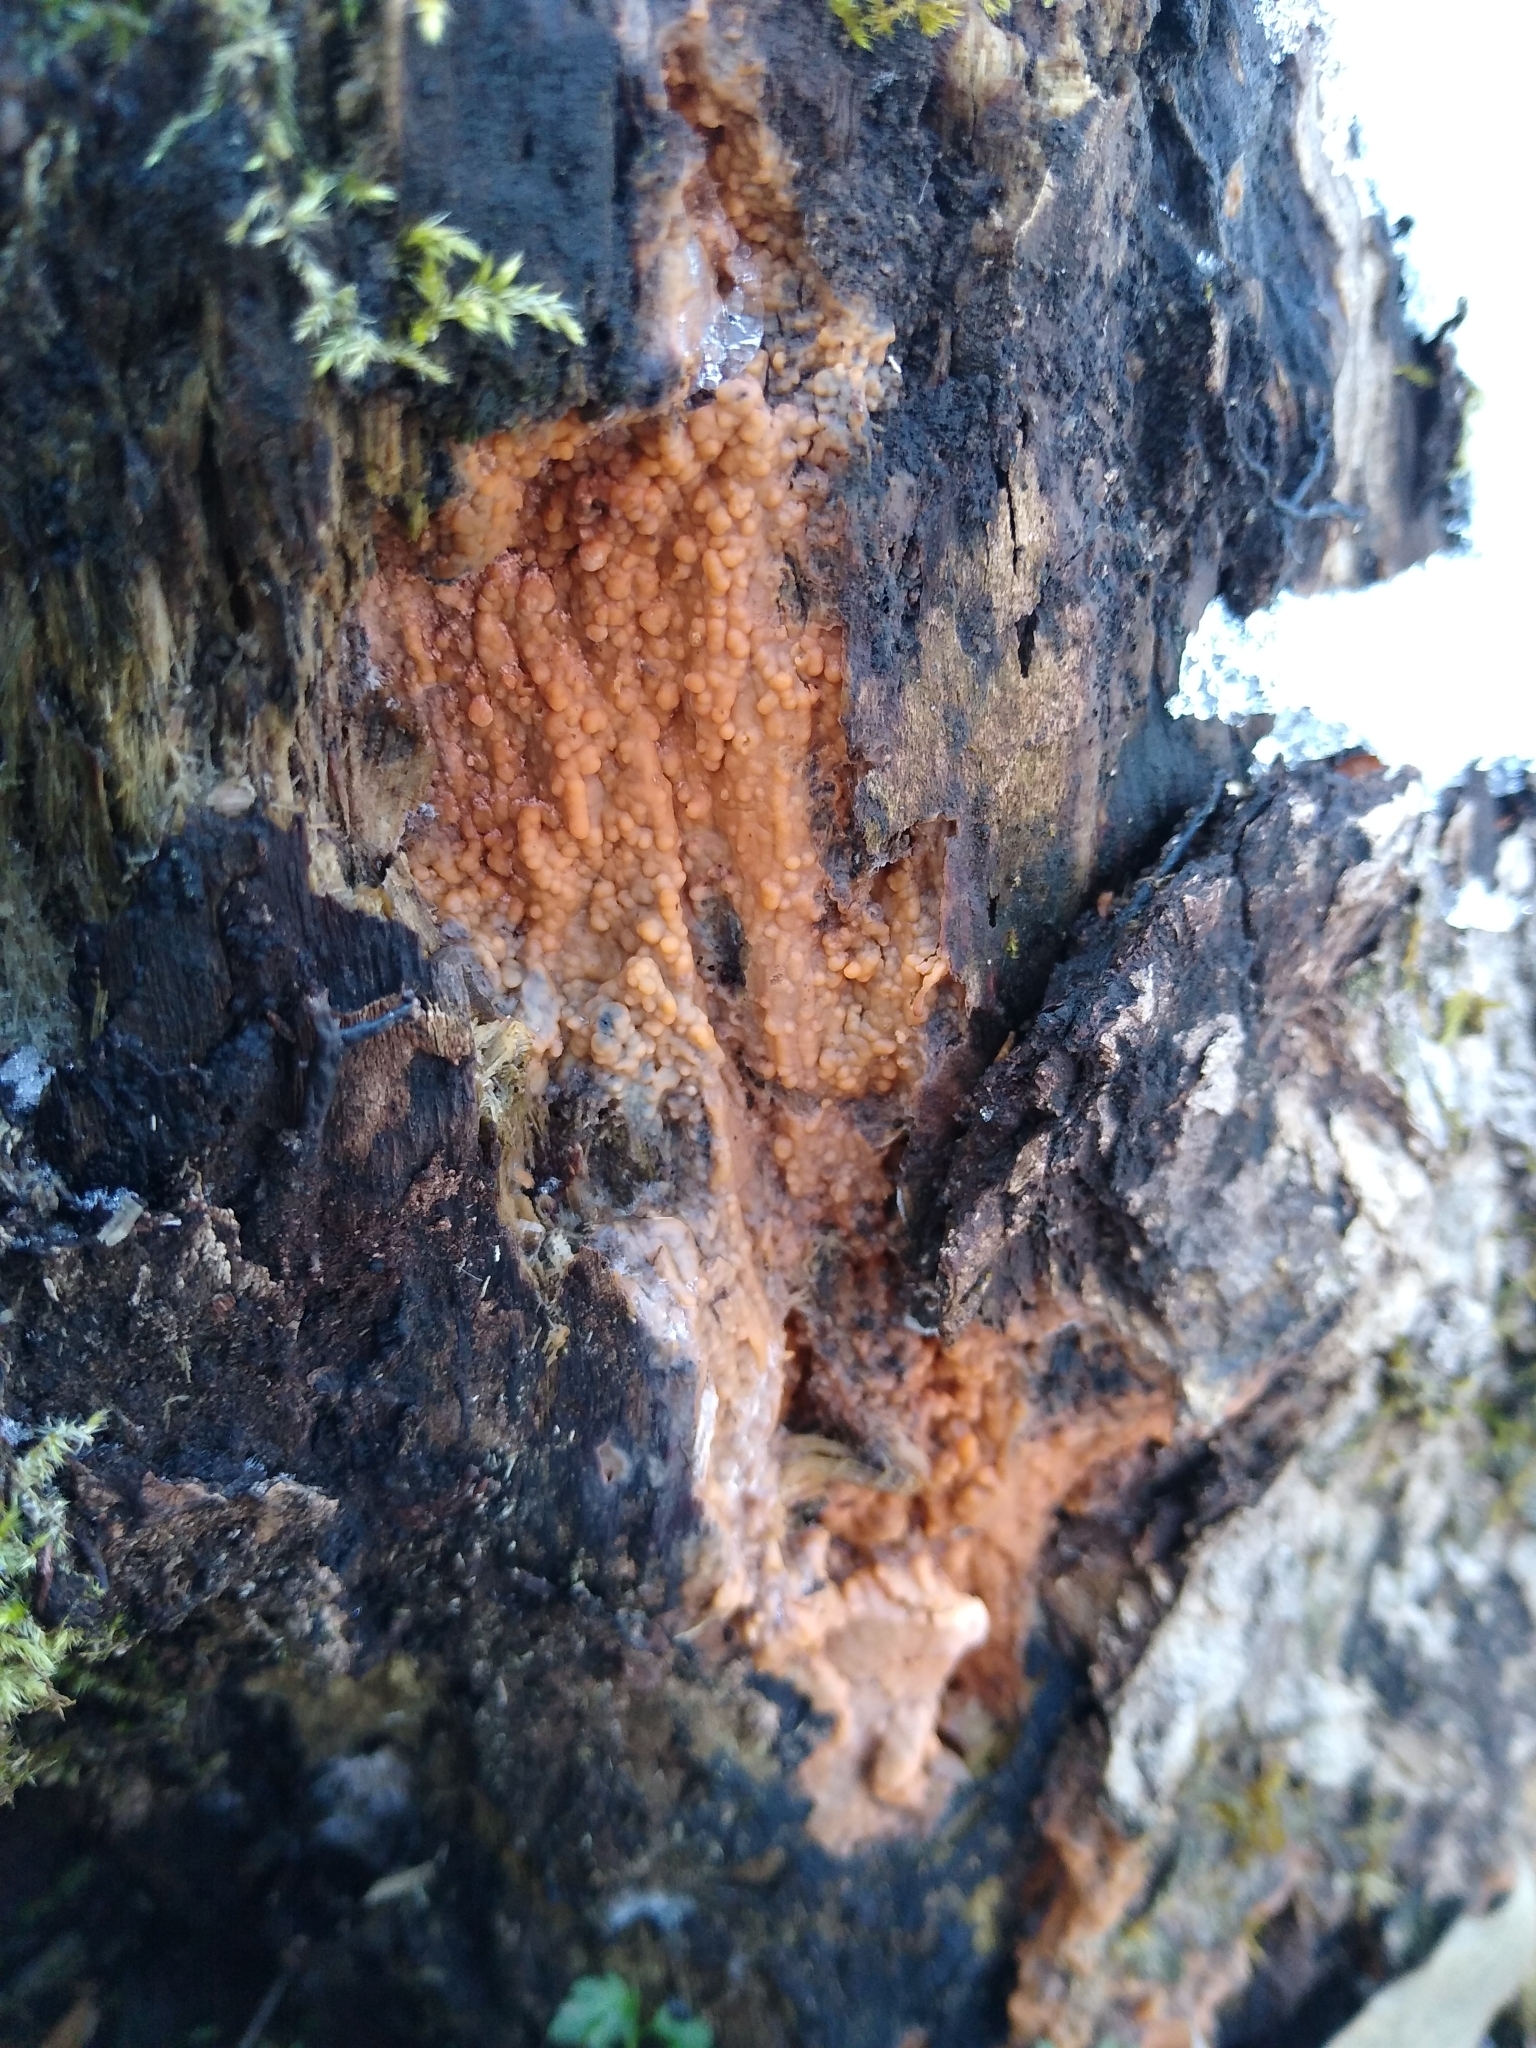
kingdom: Fungi
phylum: Basidiomycota
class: Agaricomycetes
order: Russulales
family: Peniophoraceae
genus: Dichostereum
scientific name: Dichostereum effuscatum
